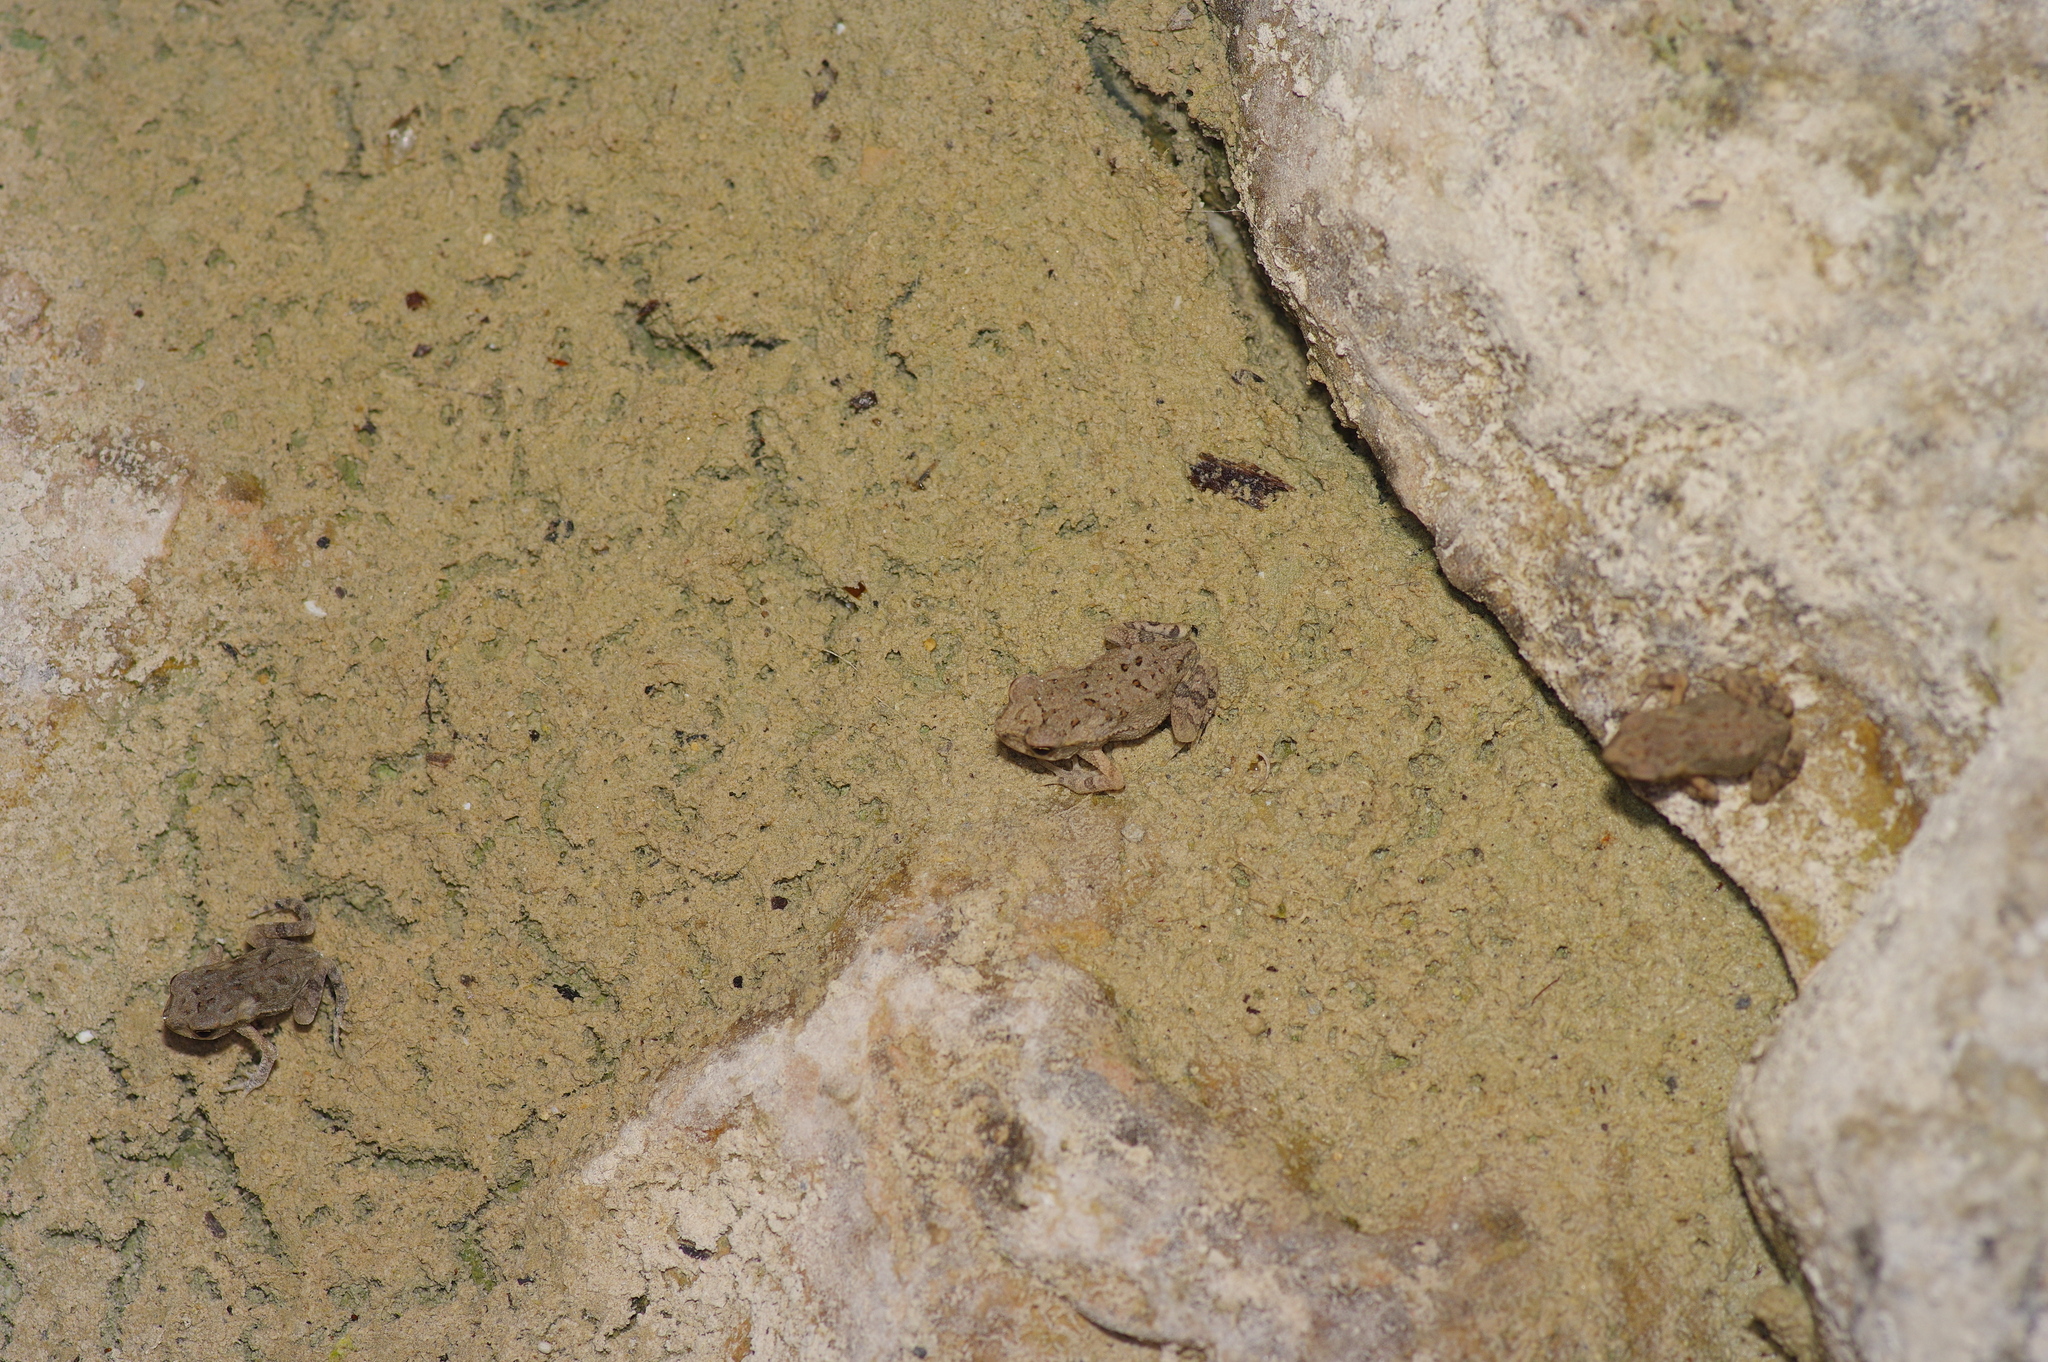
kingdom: Animalia
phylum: Chordata
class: Amphibia
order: Anura
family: Bufonidae
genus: Incilius
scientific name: Incilius nebulifer
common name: Gulf coast toad
